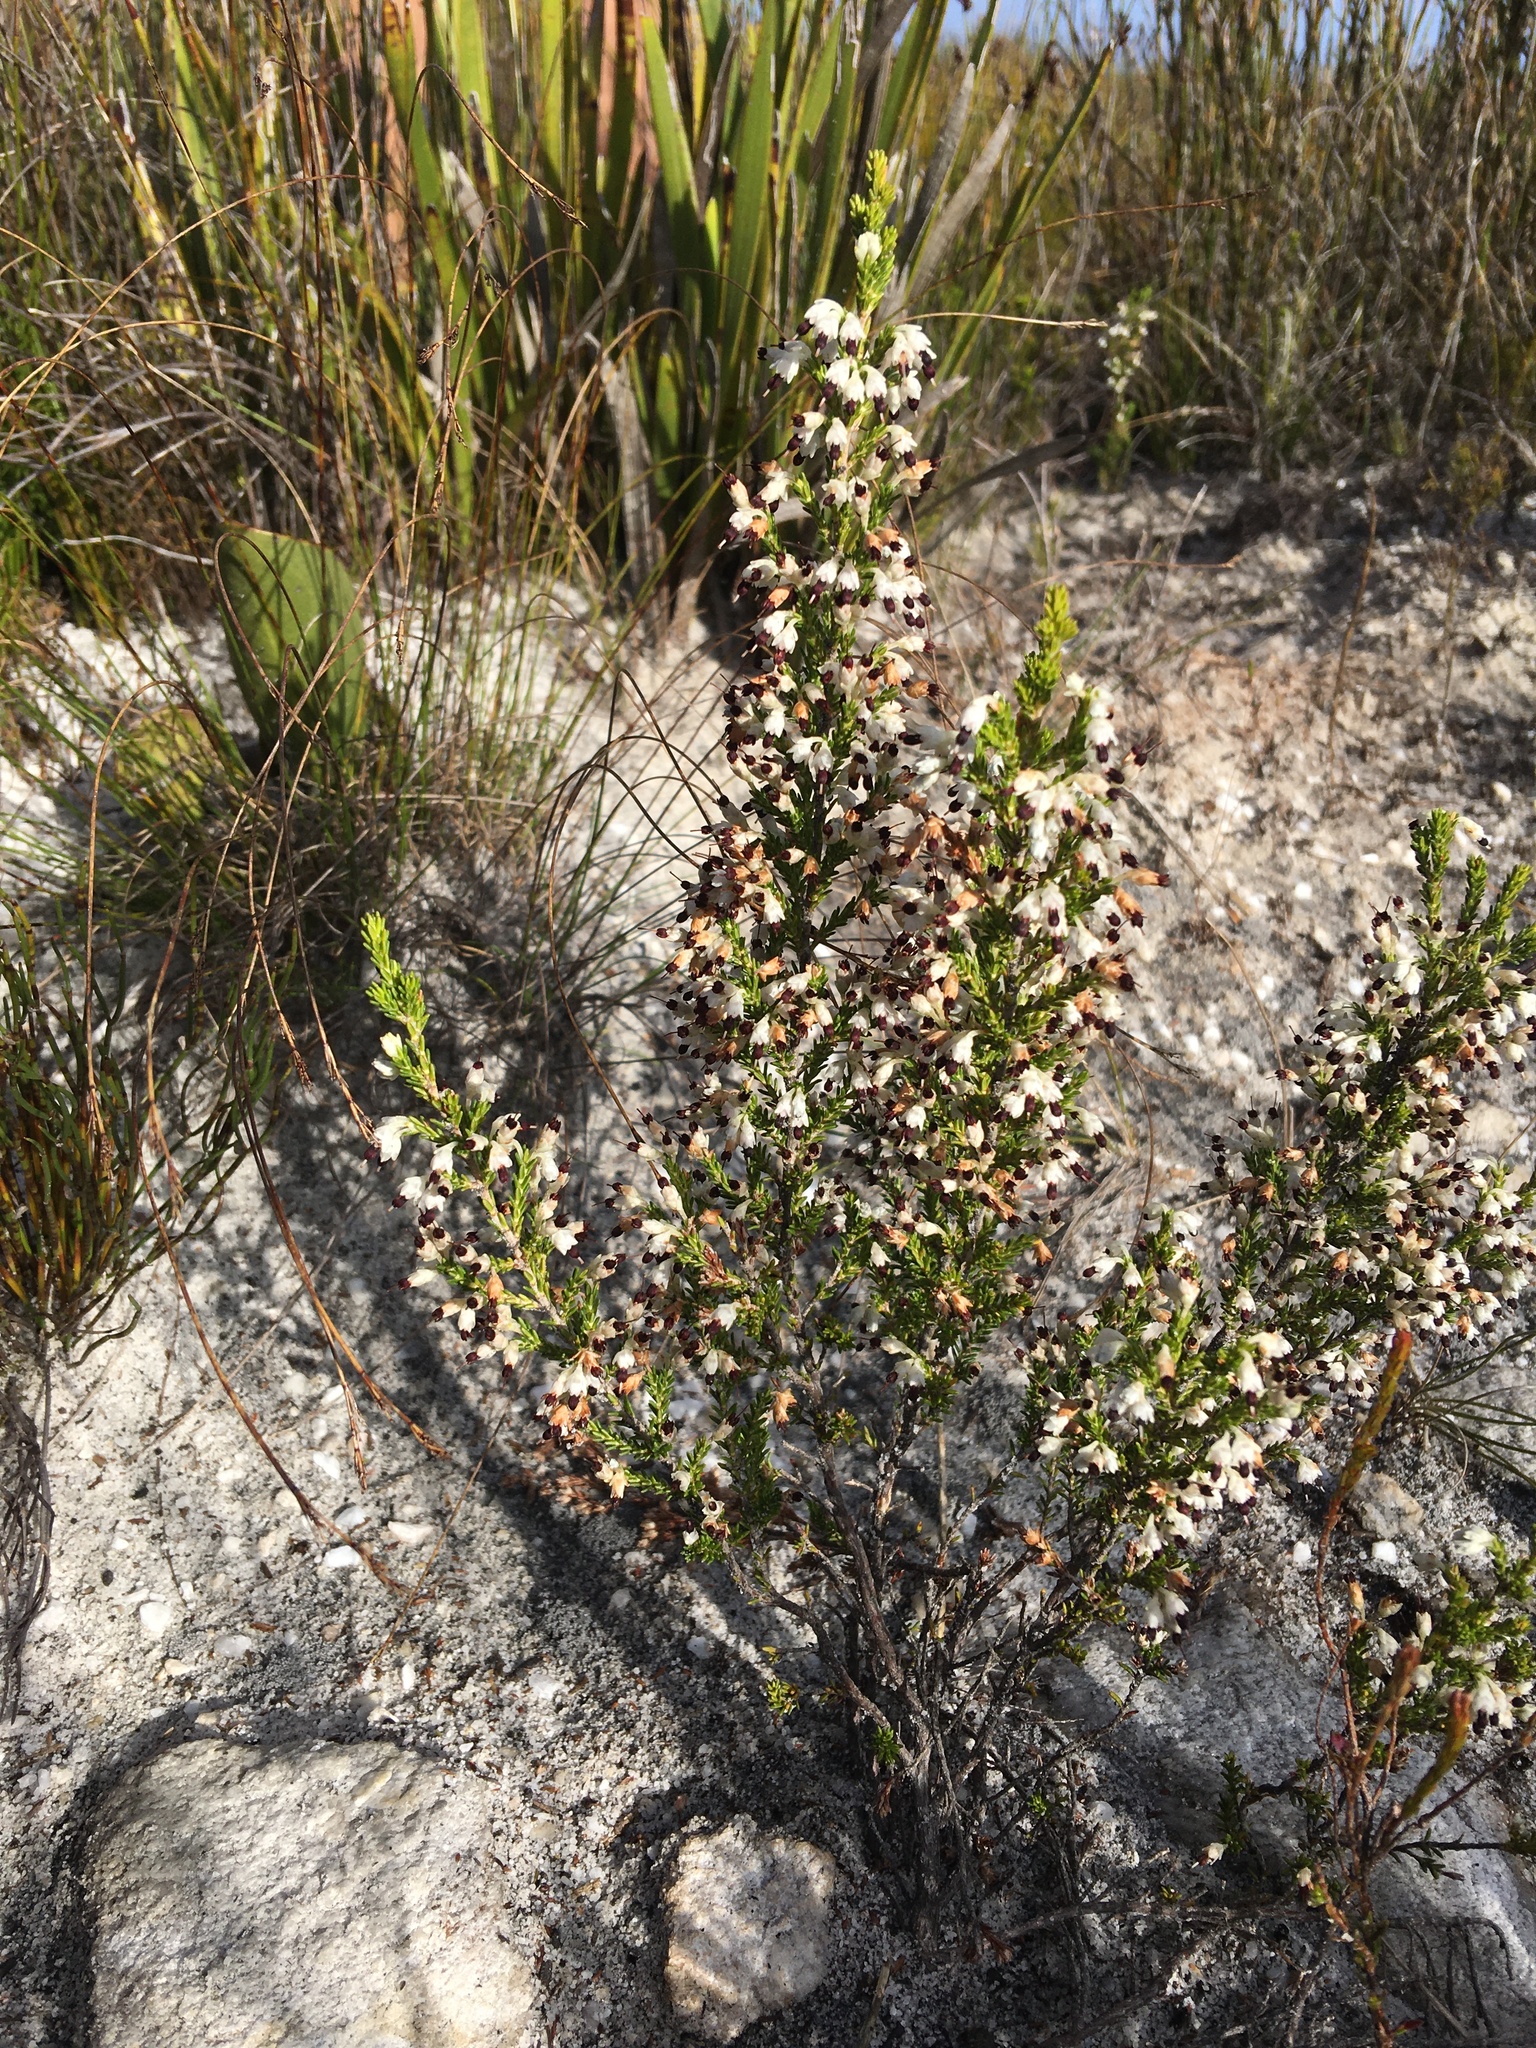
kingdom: Plantae
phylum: Tracheophyta
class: Magnoliopsida
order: Ericales
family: Ericaceae
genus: Erica
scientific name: Erica imbricata
